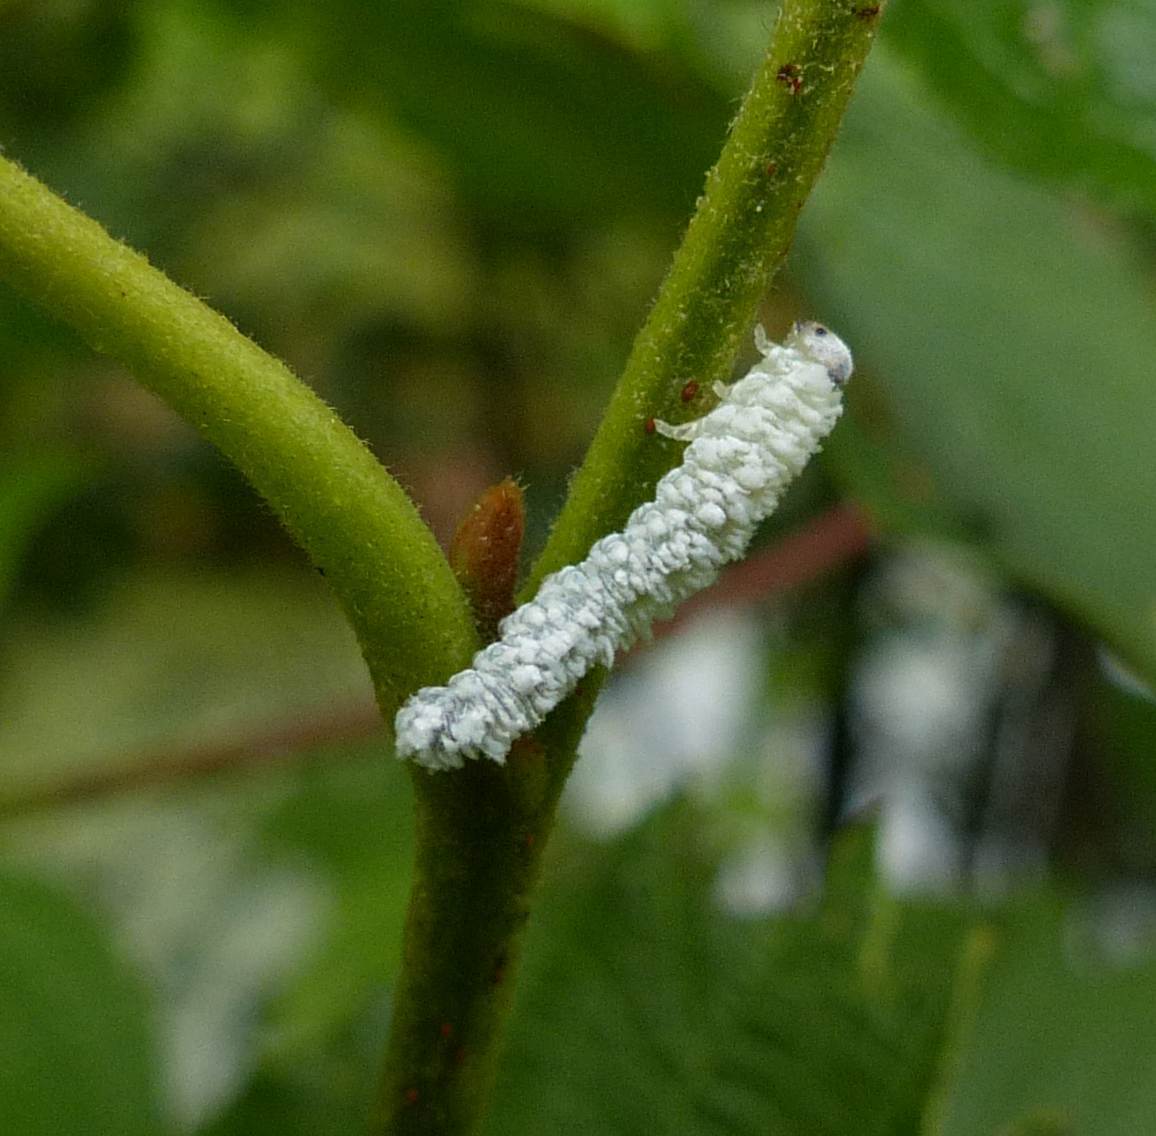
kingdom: Animalia
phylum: Arthropoda
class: Insecta
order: Hymenoptera
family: Tenthredinidae
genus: Eriocampa
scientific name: Eriocampa ovata
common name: Alder wooly sawfly
